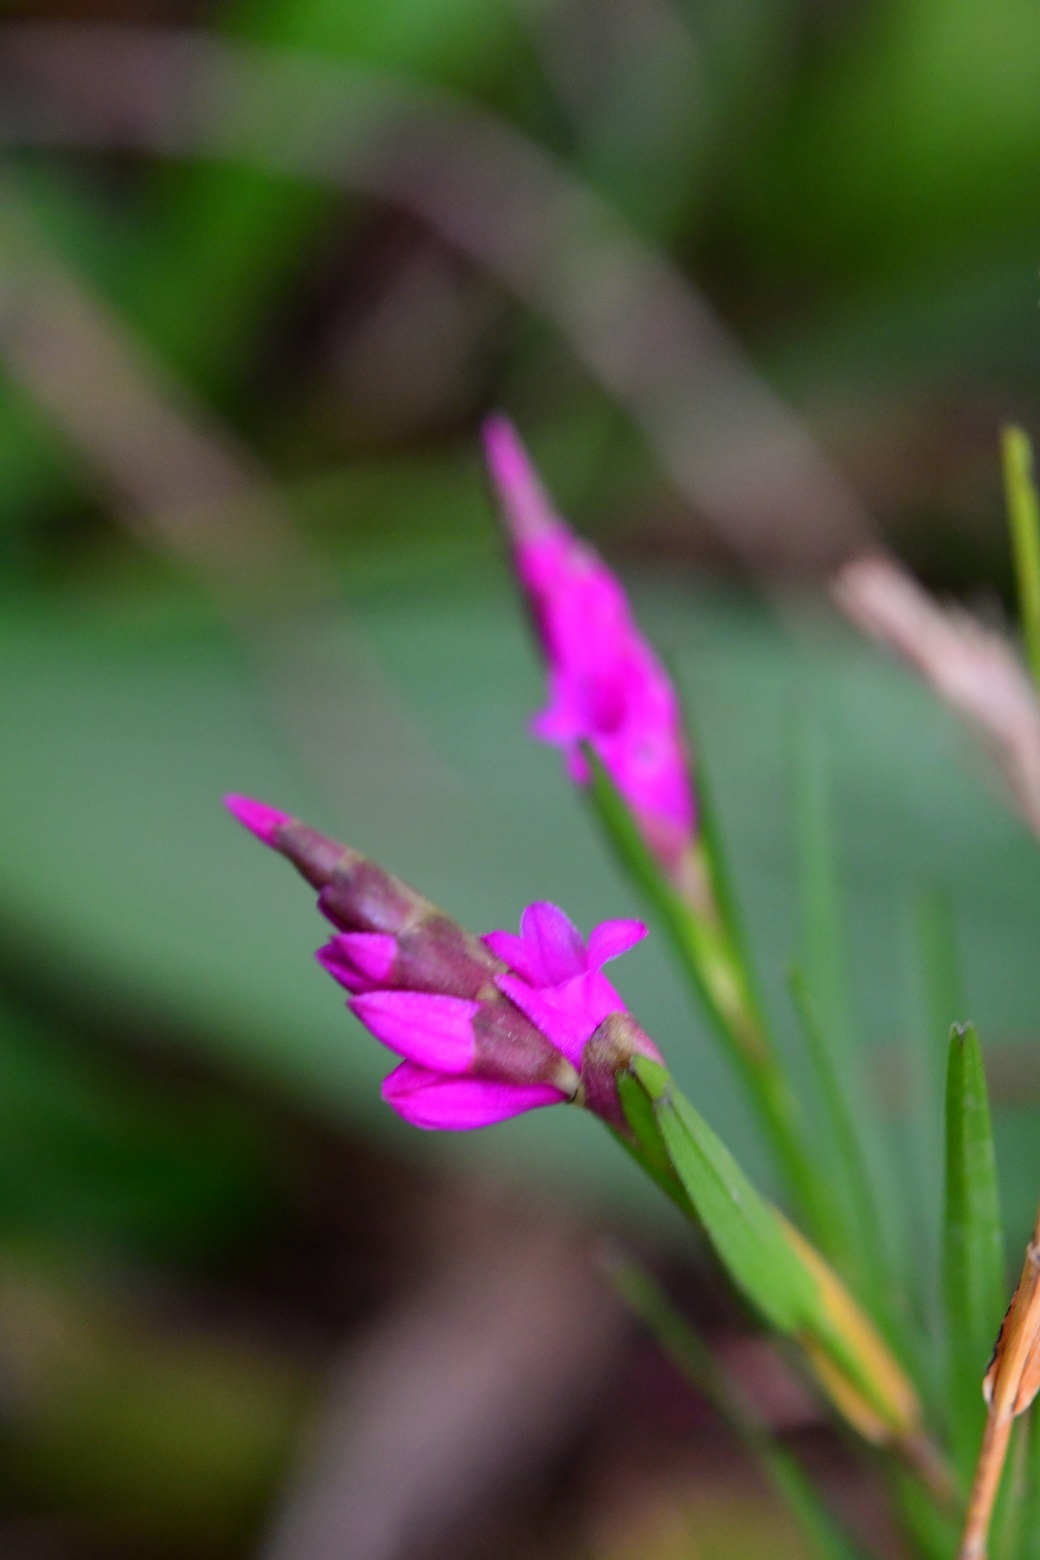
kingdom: Plantae
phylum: Tracheophyta
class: Liliopsida
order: Asparagales
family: Orchidaceae
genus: Isochilus
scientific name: Isochilus latibracteatus
